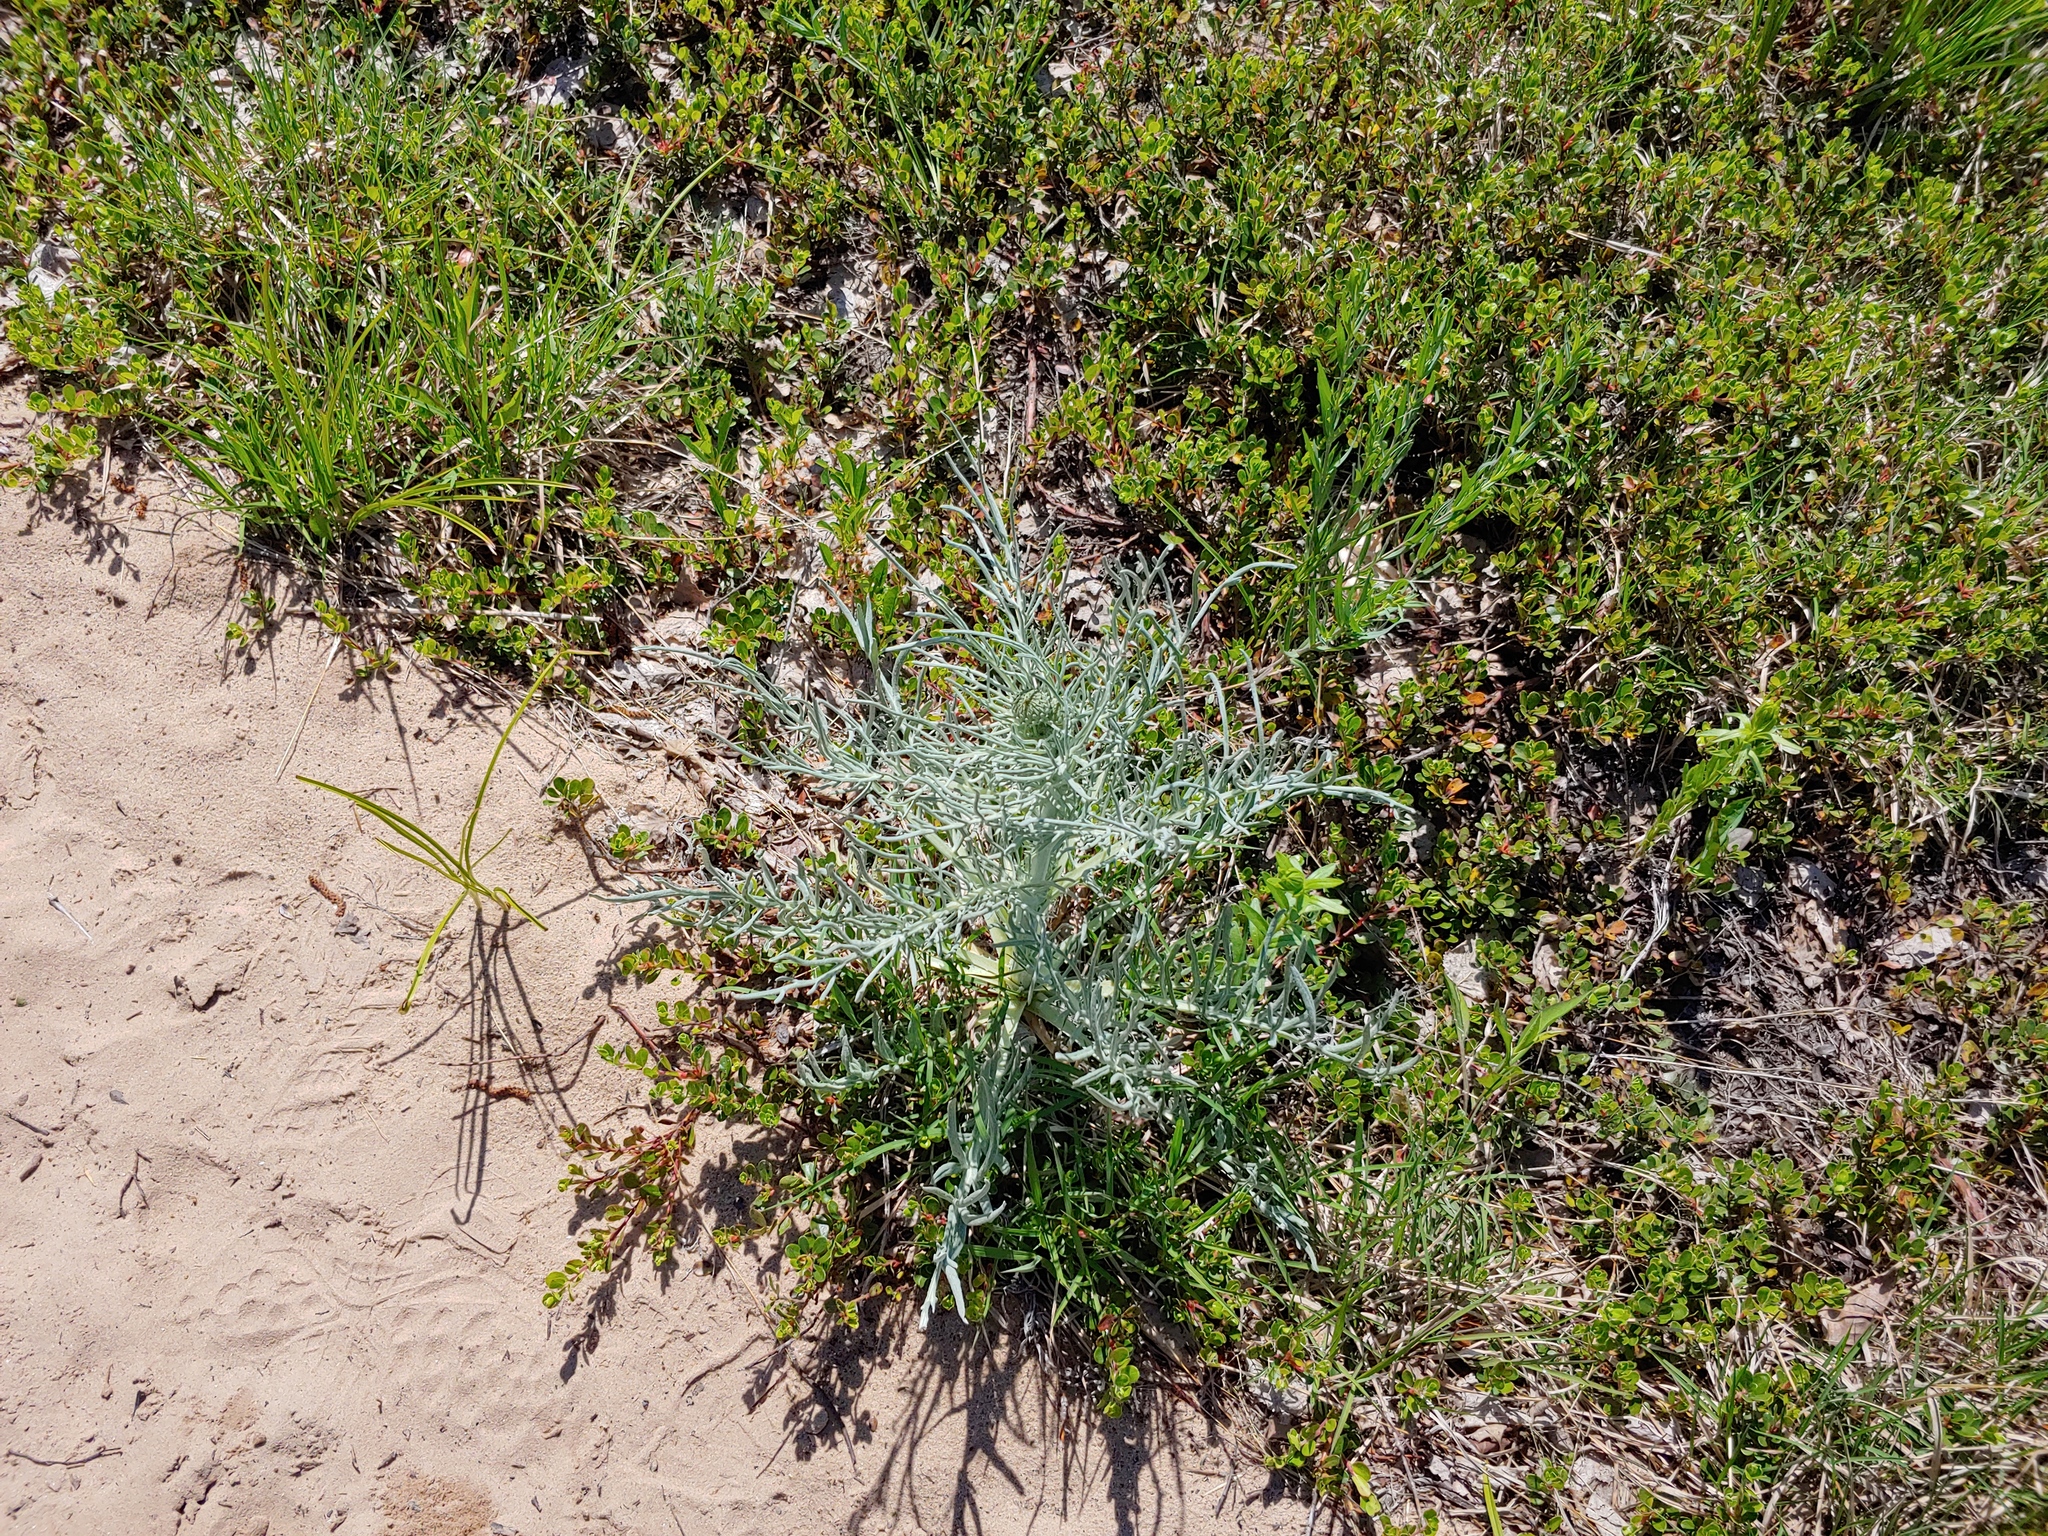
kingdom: Plantae
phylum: Tracheophyta
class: Magnoliopsida
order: Asterales
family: Asteraceae
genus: Cirsium
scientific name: Cirsium pitcheri
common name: Dune thistle
